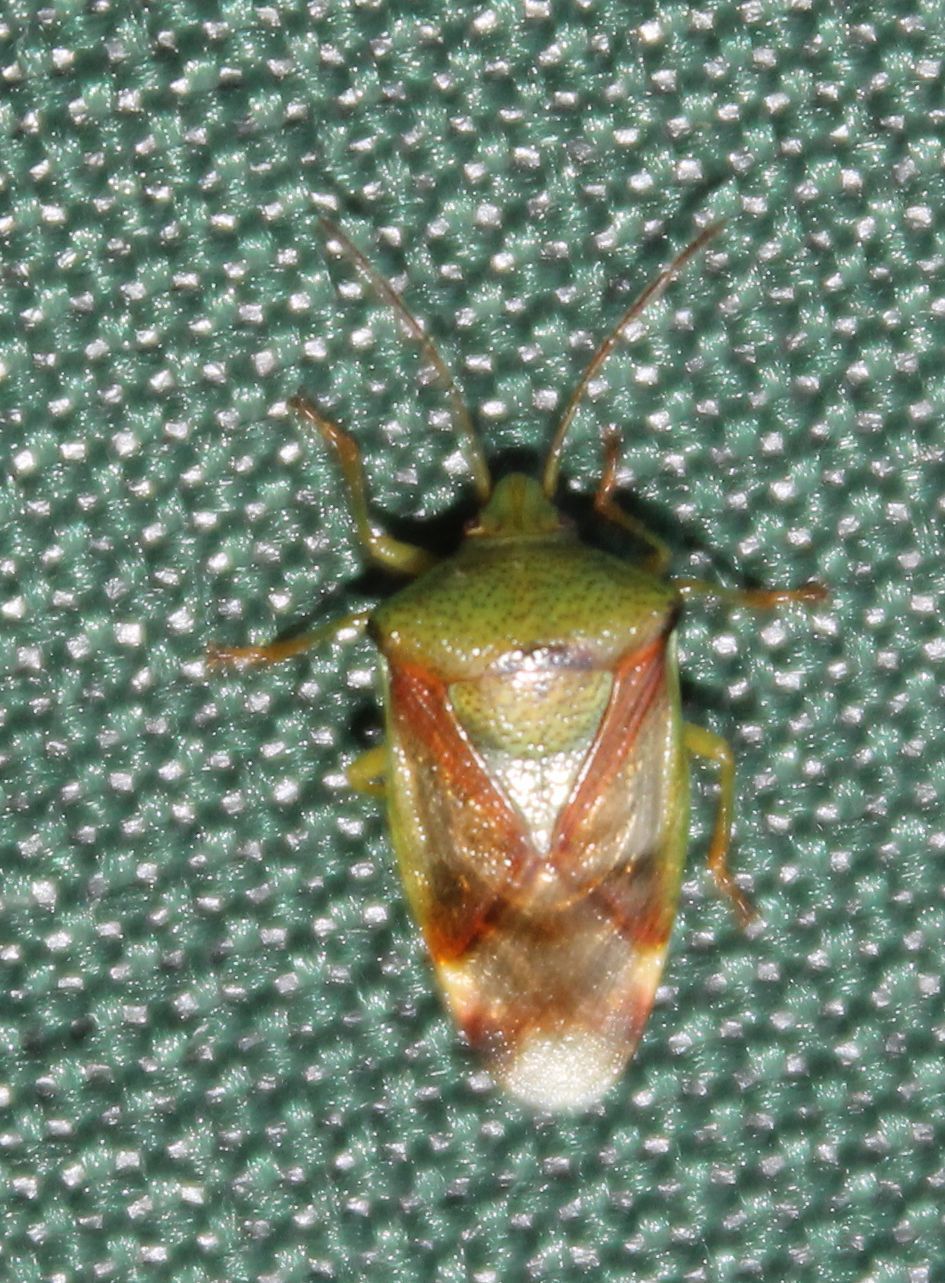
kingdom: Animalia
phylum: Arthropoda
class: Insecta
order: Hemiptera
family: Acanthosomatidae
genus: Elasmostethus
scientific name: Elasmostethus interstinctus
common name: Birch shieldbug
